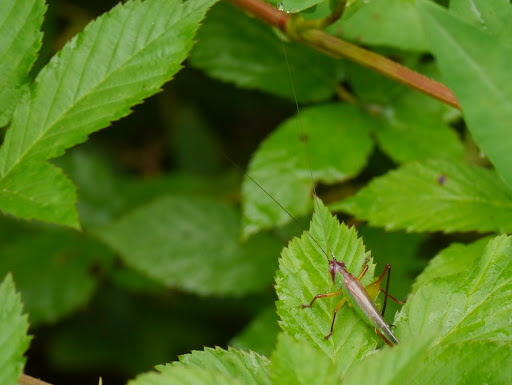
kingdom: Animalia
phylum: Arthropoda
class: Insecta
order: Orthoptera
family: Tettigoniidae
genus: Orchelimum
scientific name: Orchelimum pulchellum
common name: Handsome meadow katydid
